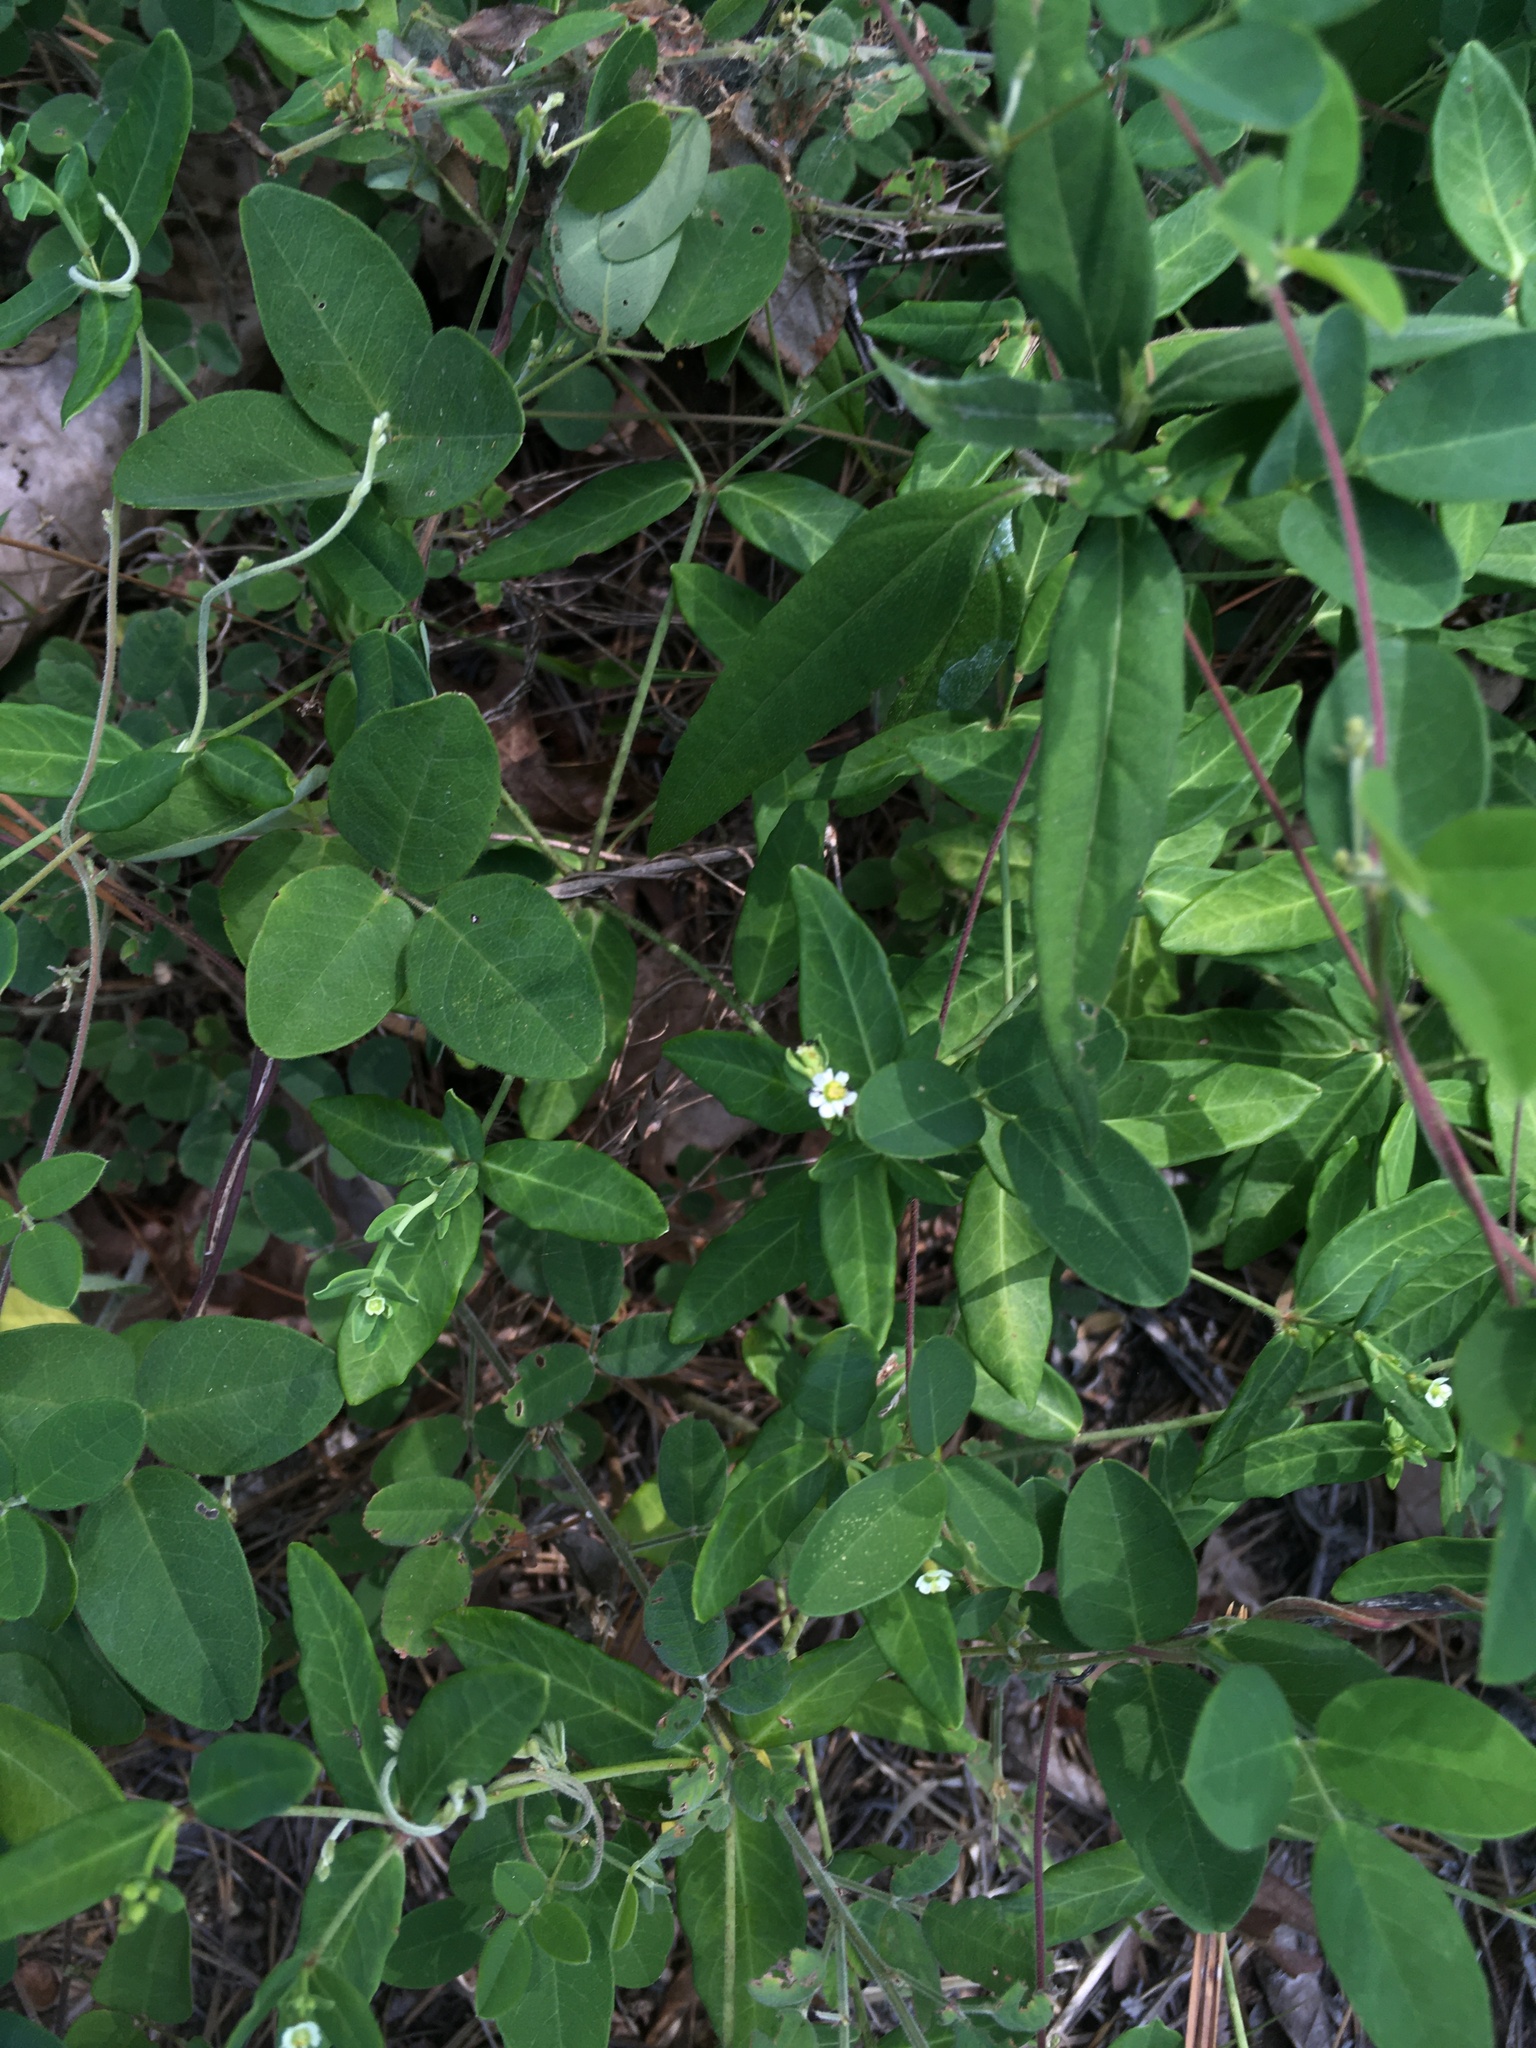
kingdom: Plantae
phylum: Tracheophyta
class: Magnoliopsida
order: Malpighiales
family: Euphorbiaceae
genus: Euphorbia
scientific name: Euphorbia pubentissima
